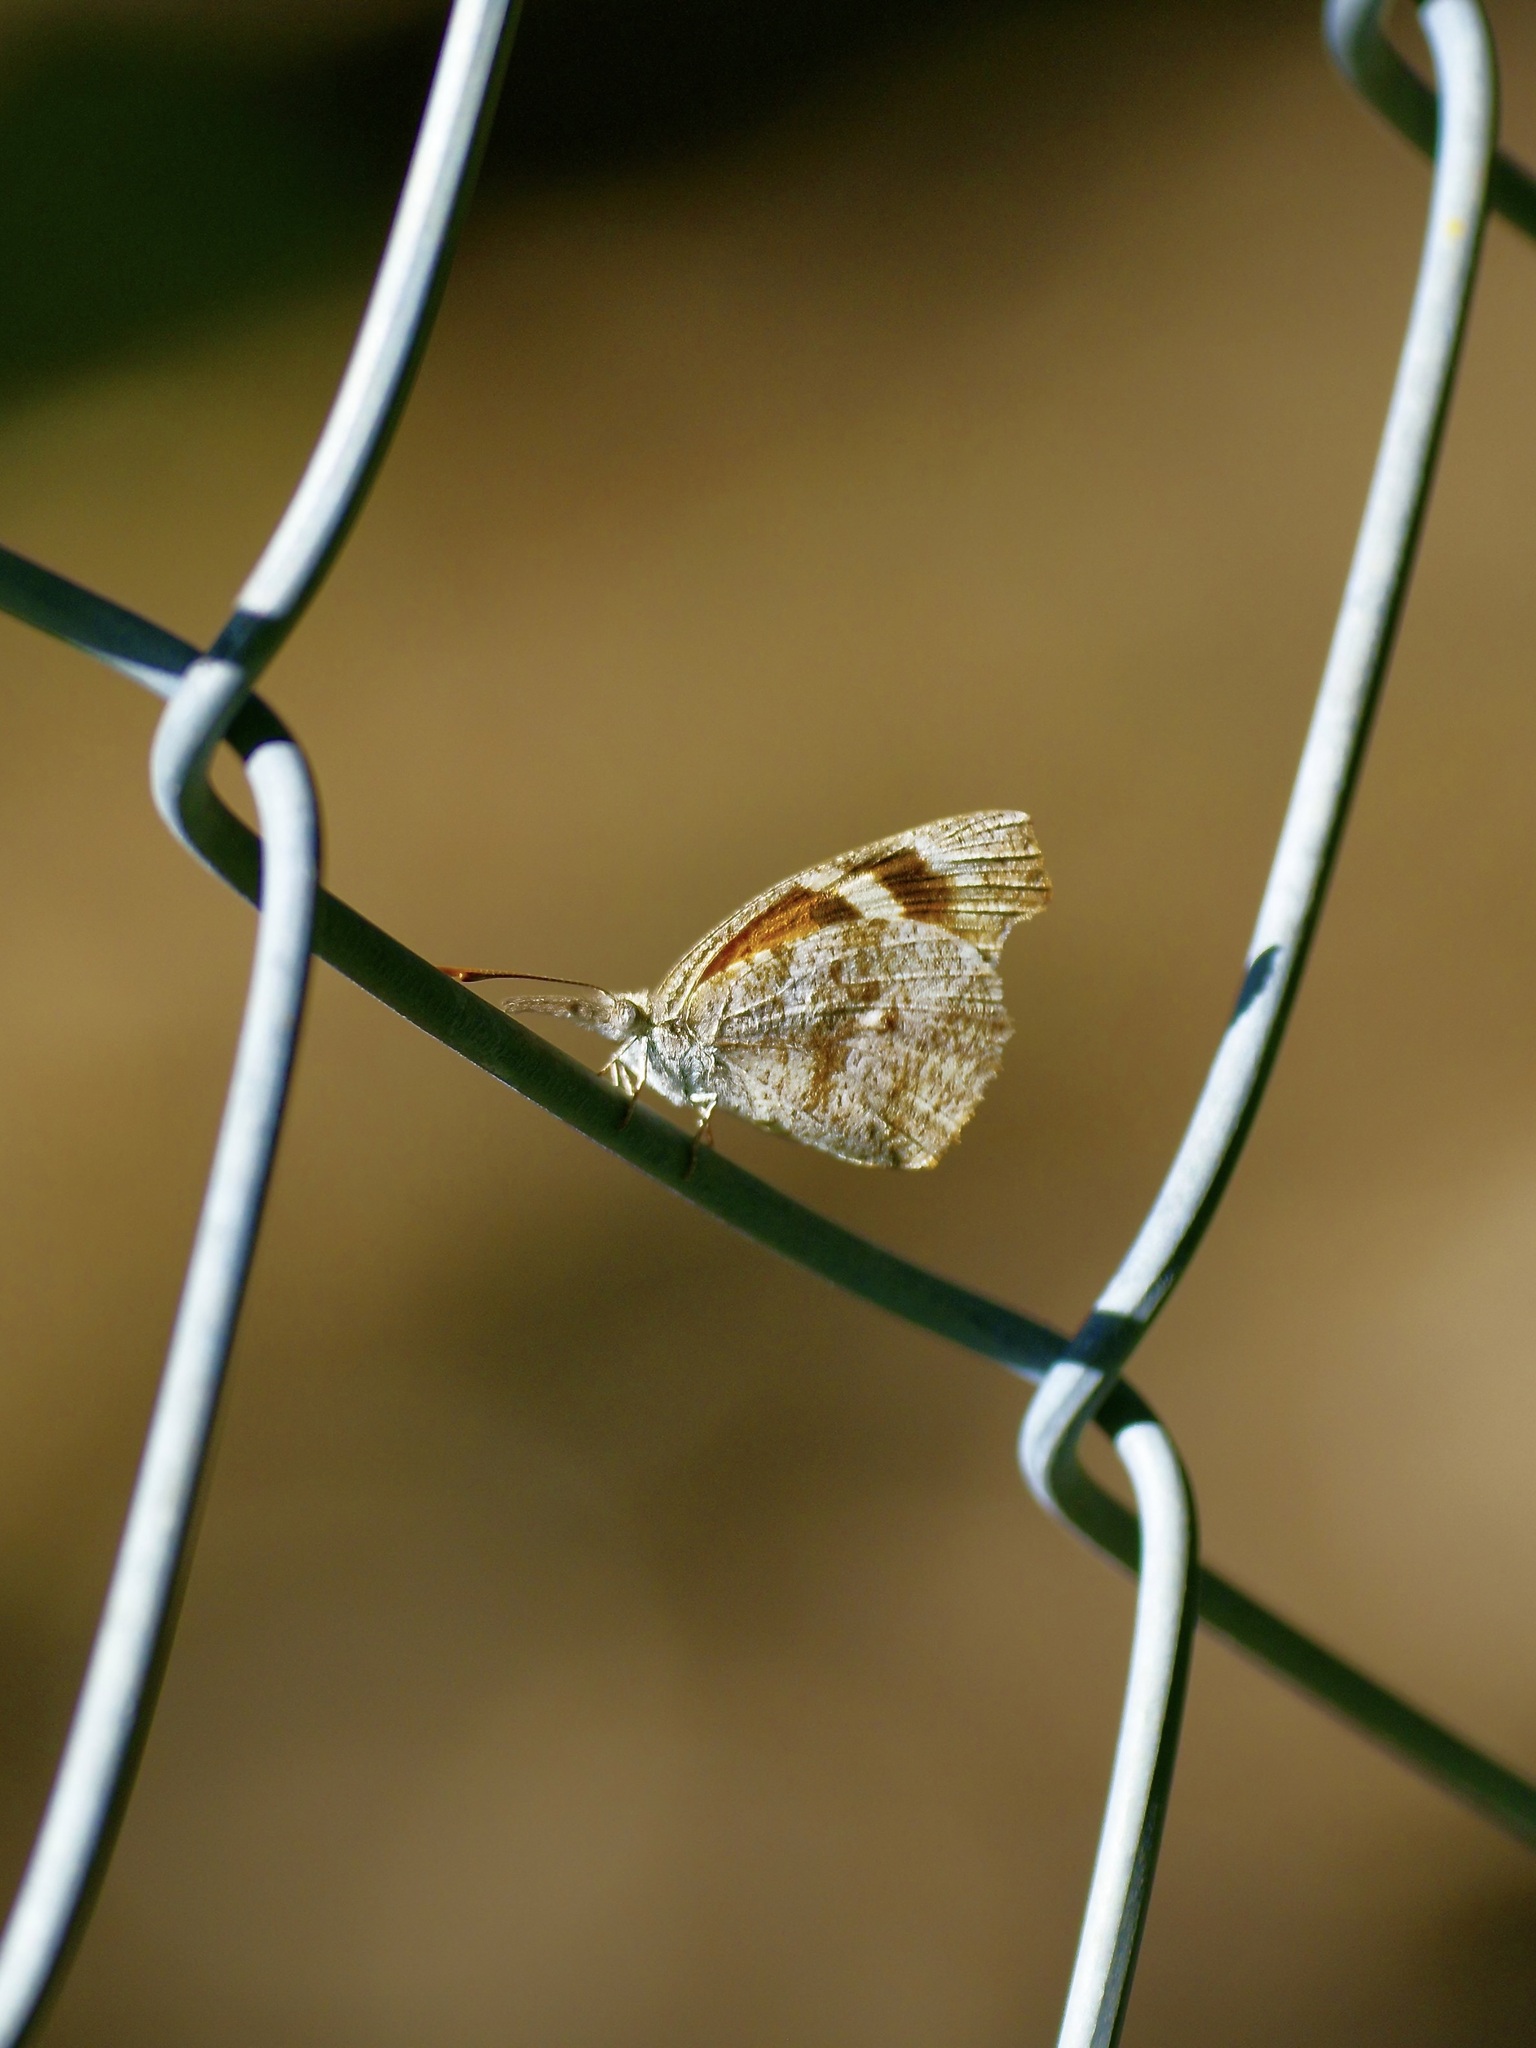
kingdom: Animalia
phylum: Arthropoda
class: Insecta
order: Lepidoptera
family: Nymphalidae
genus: Libytheana
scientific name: Libytheana carinenta
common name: American snout
